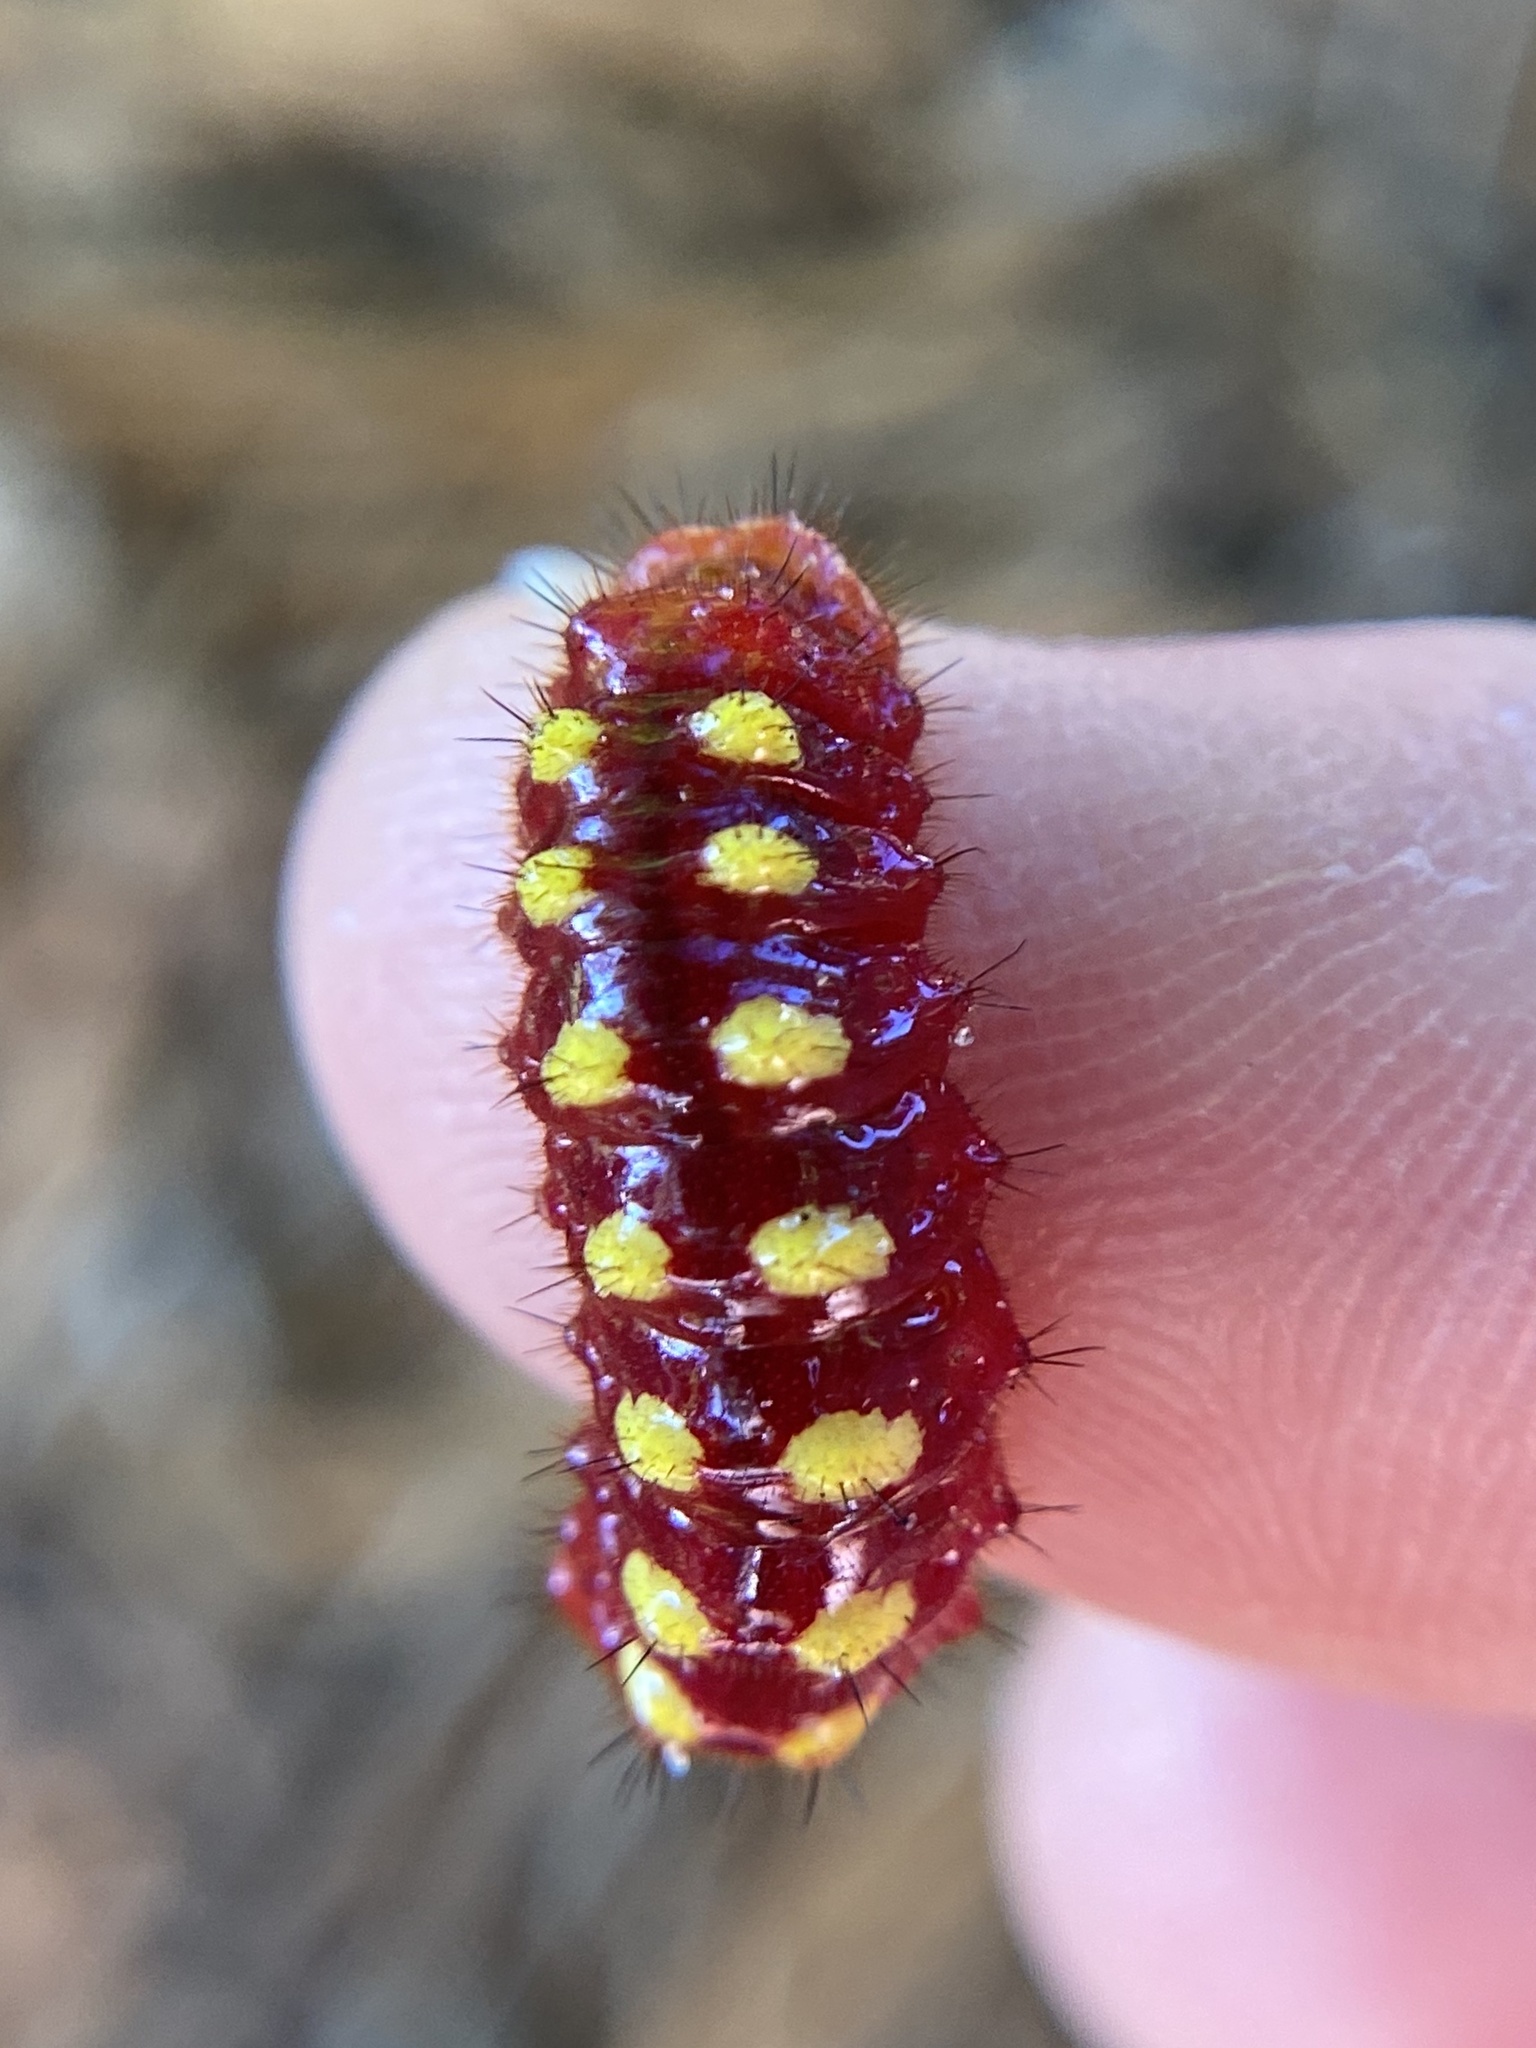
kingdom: Animalia
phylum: Arthropoda
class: Insecta
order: Lepidoptera
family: Lycaenidae
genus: Eumaeus
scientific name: Eumaeus atala
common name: Atala
